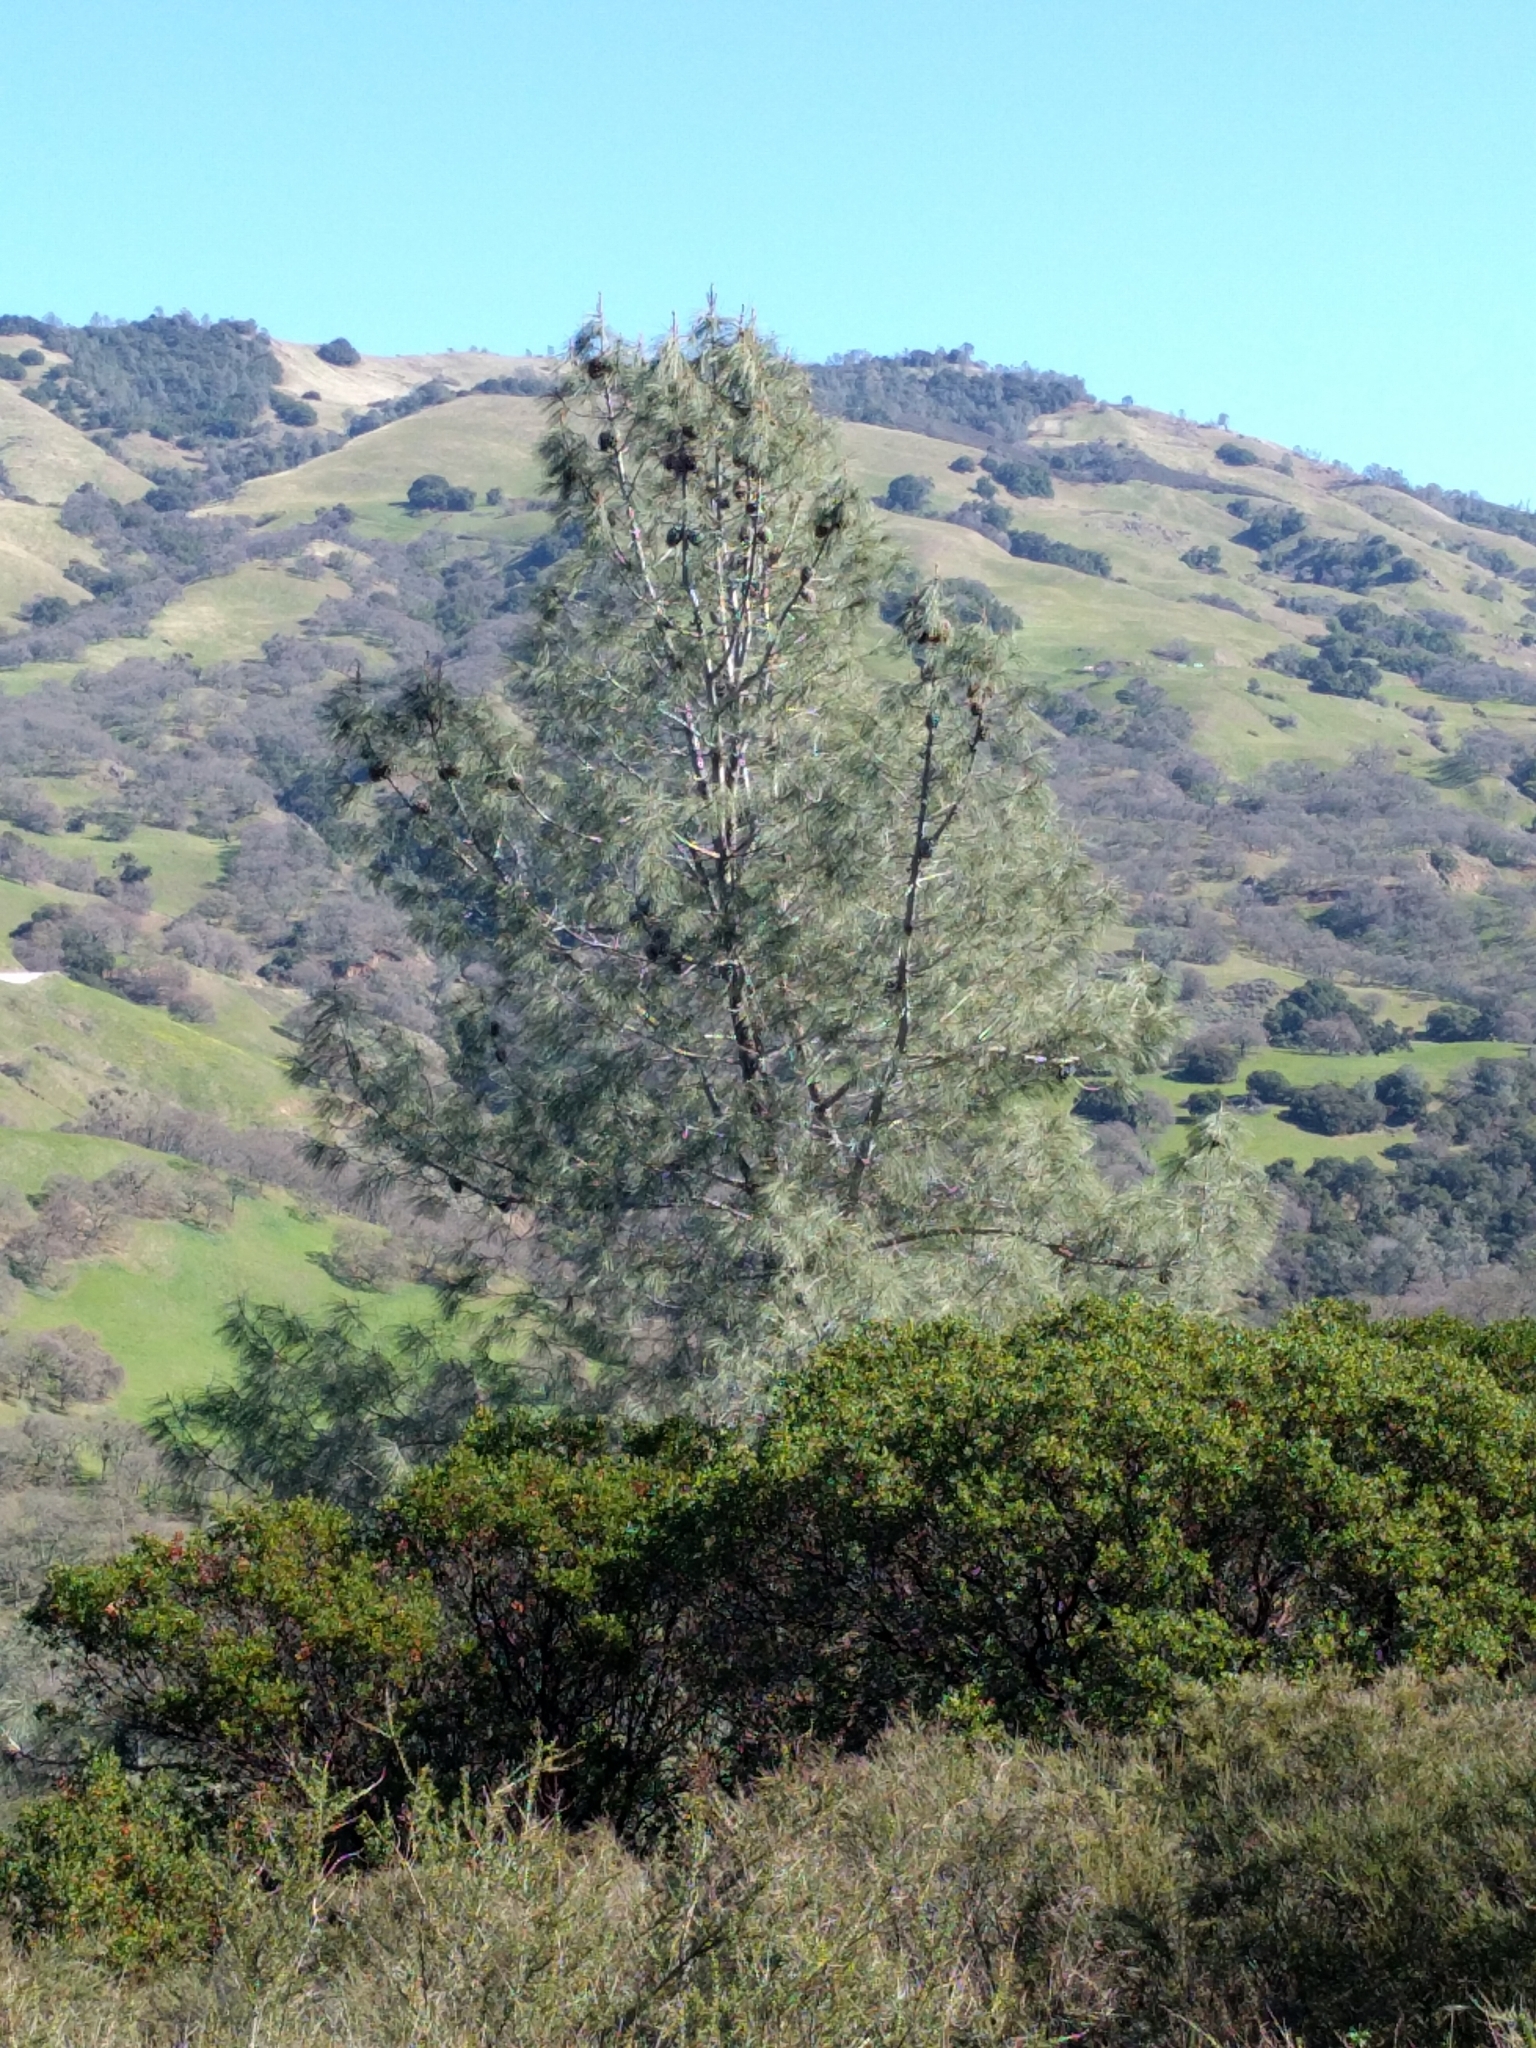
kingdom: Plantae
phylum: Tracheophyta
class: Pinopsida
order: Pinales
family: Pinaceae
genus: Pinus
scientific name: Pinus sabiniana
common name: Bull pine
